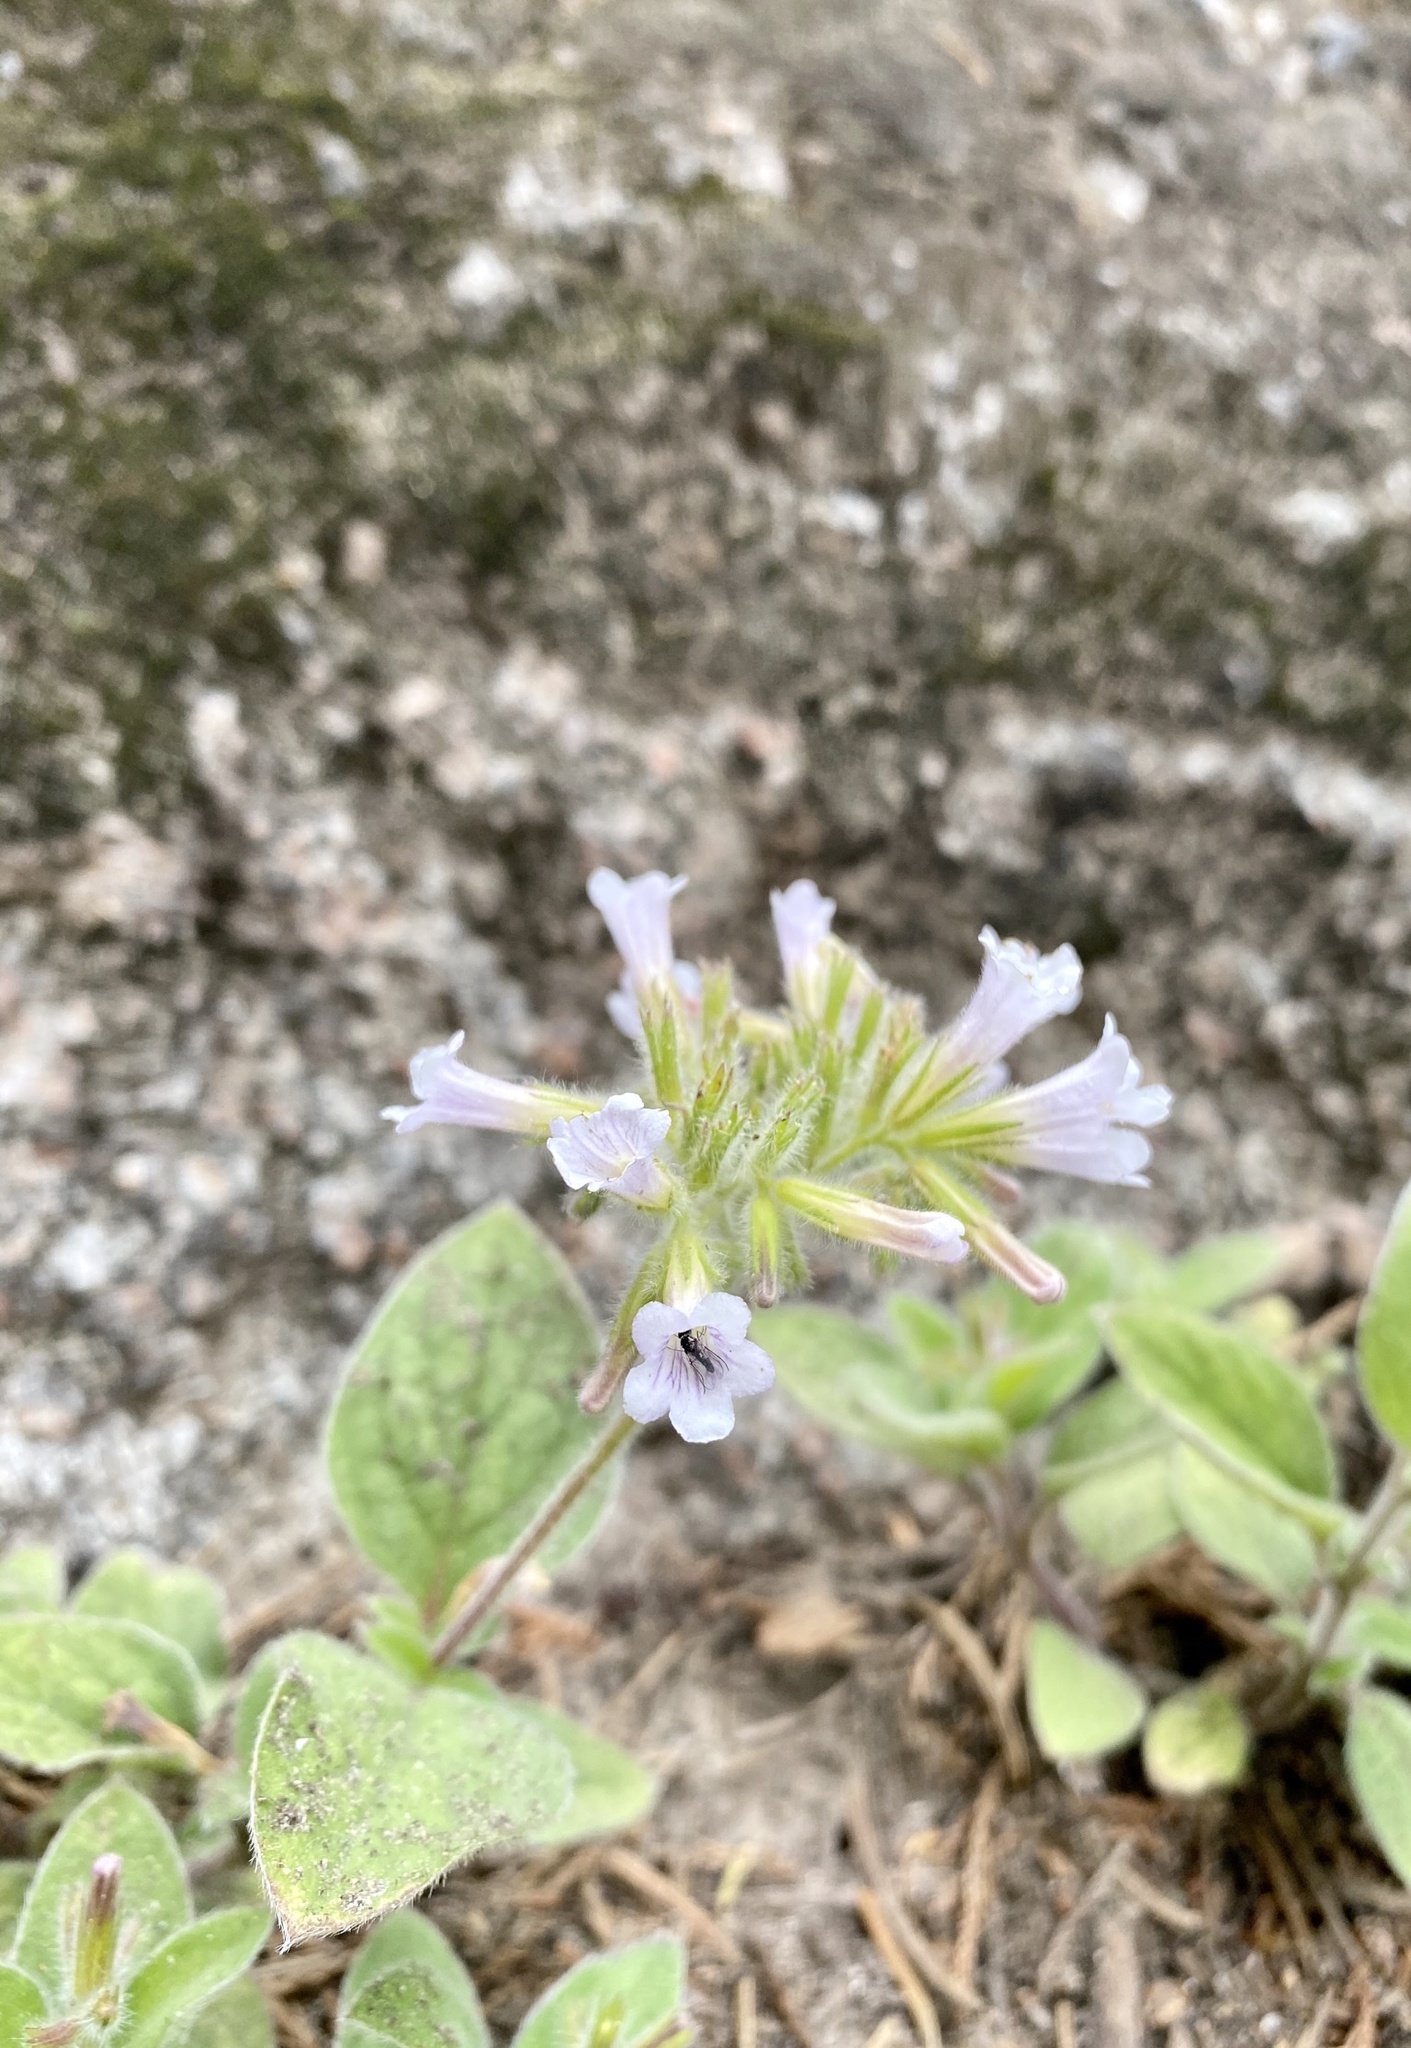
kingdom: Plantae
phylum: Tracheophyta
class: Magnoliopsida
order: Boraginales
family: Hydrophyllaceae
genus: Draperia
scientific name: Draperia systyla
